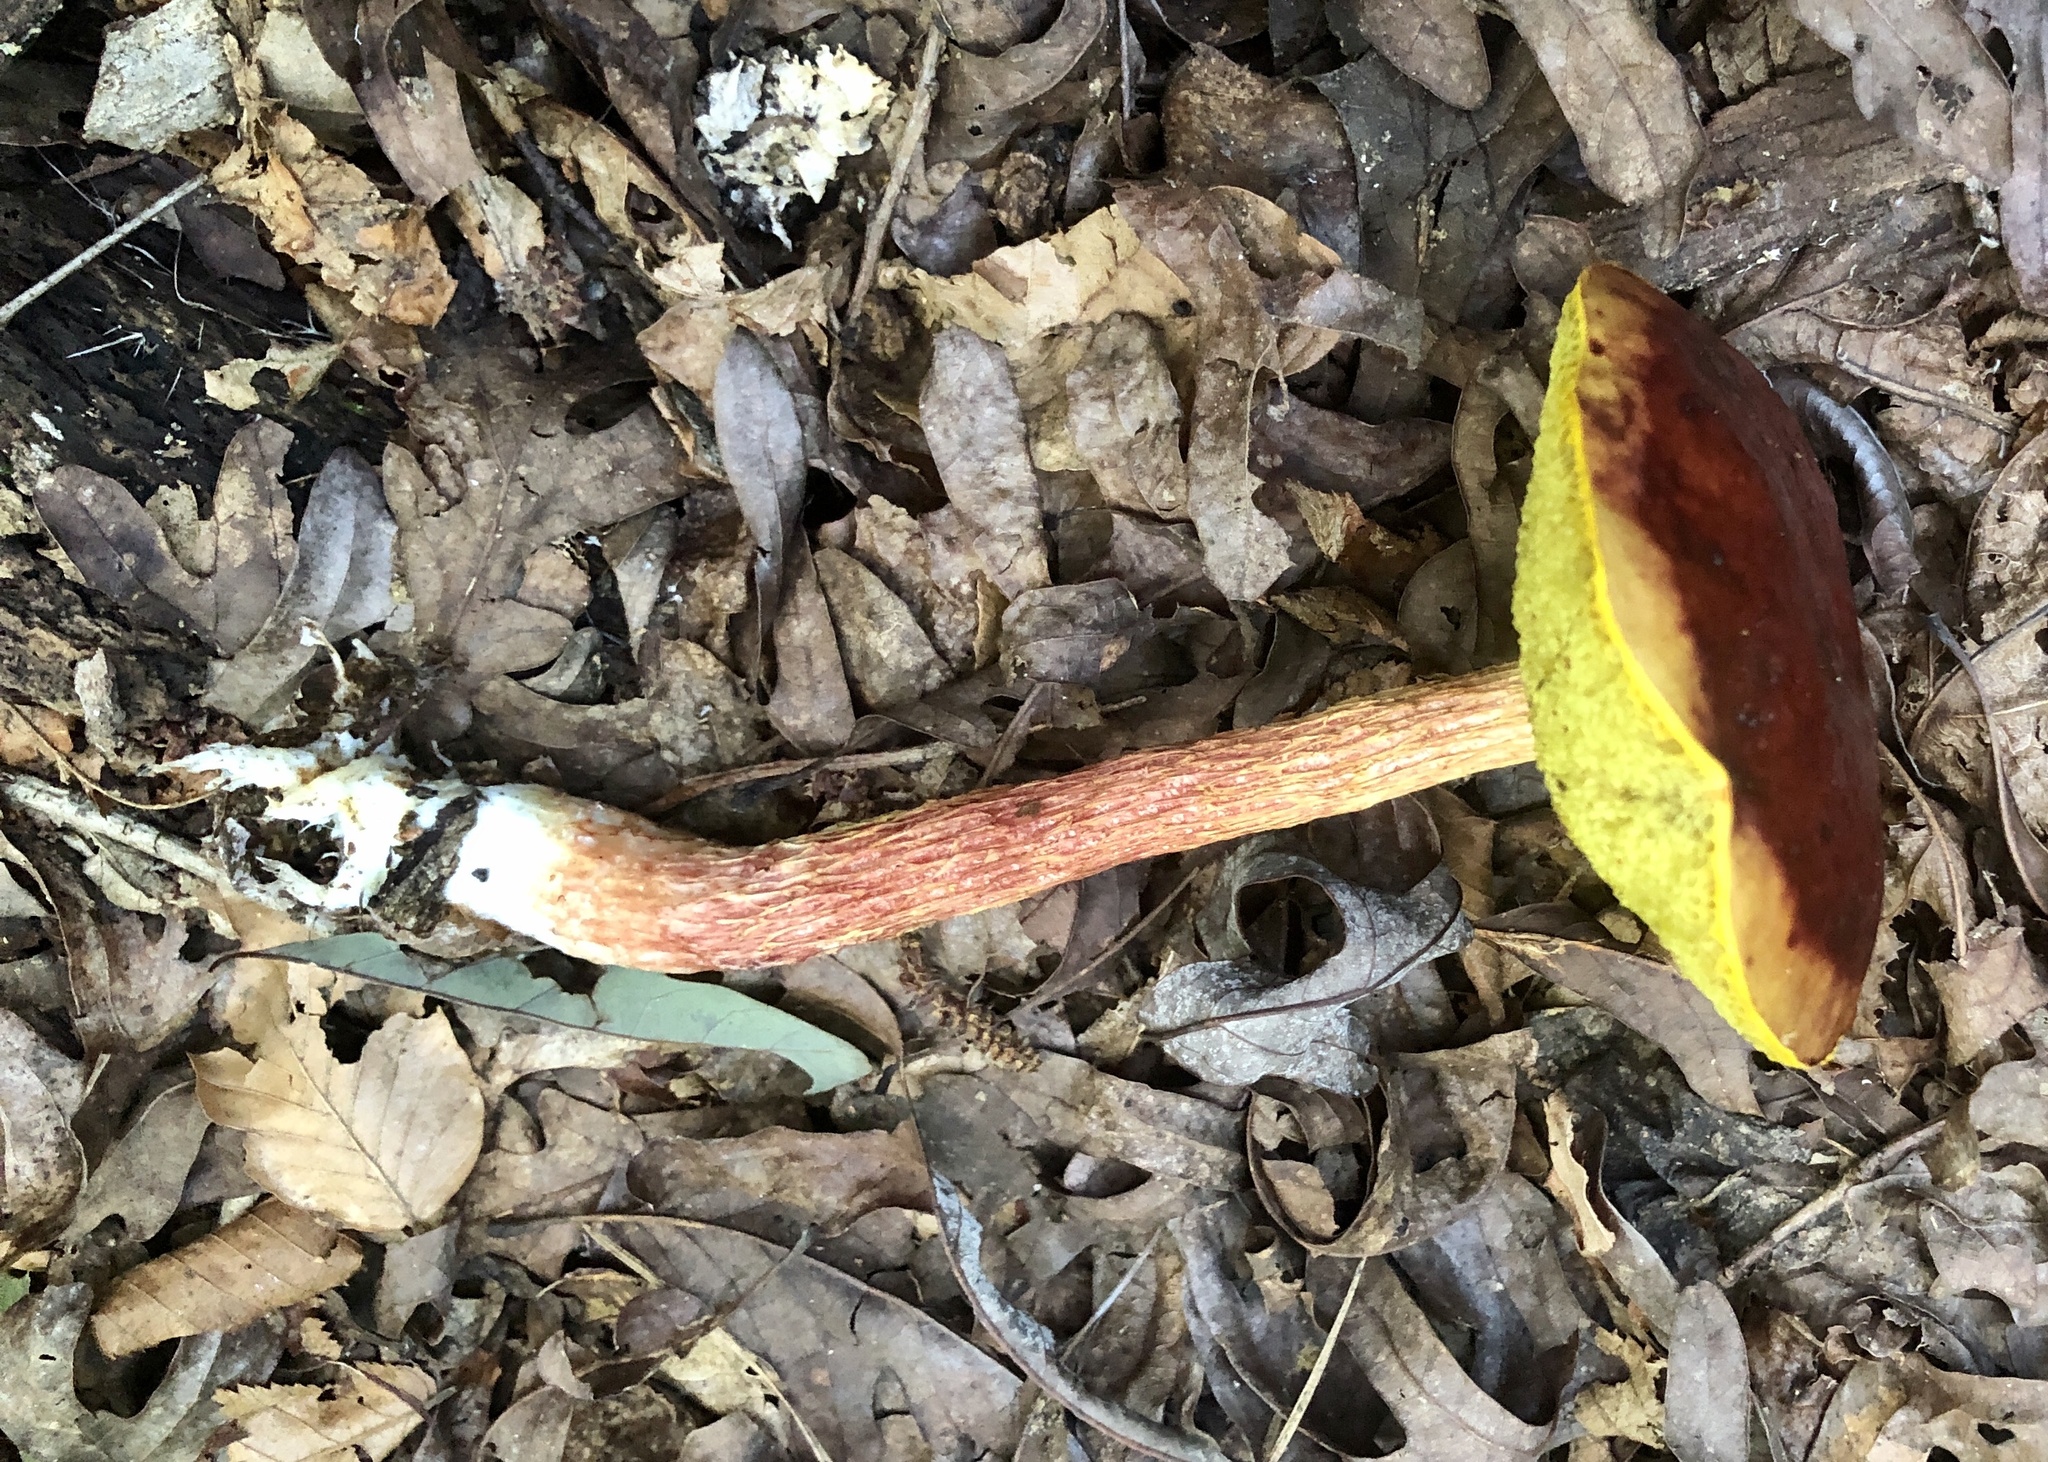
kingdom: Fungi
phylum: Basidiomycota
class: Agaricomycetes
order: Boletales
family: Boletaceae
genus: Aureoboletus
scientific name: Aureoboletus betula
